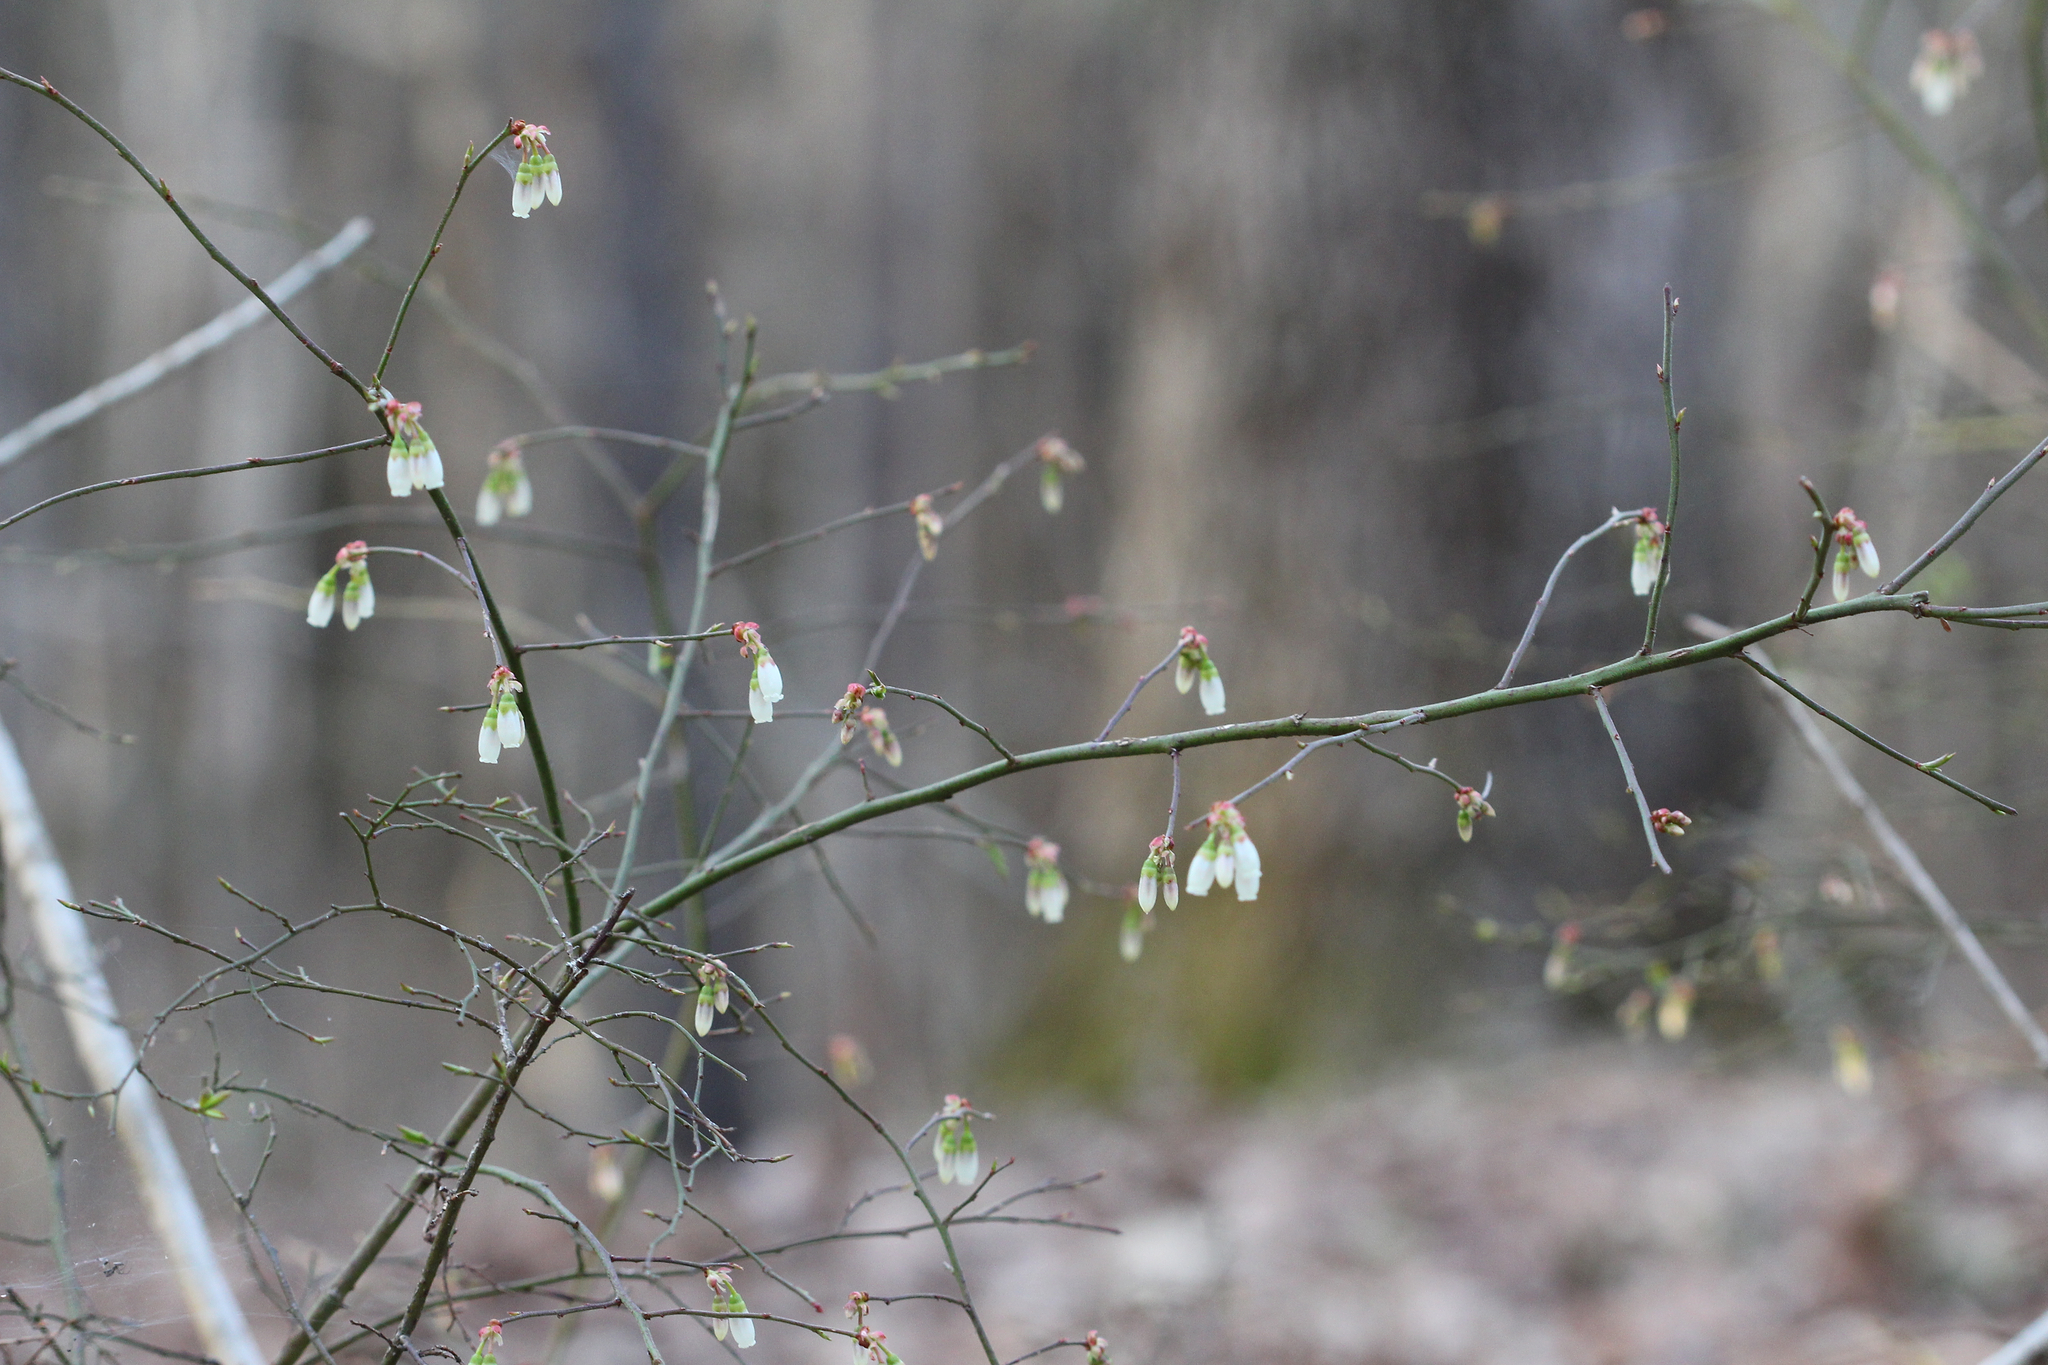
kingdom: Plantae
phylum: Tracheophyta
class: Magnoliopsida
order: Ericales
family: Ericaceae
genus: Vaccinium
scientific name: Vaccinium corymbosum
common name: Blueberry
